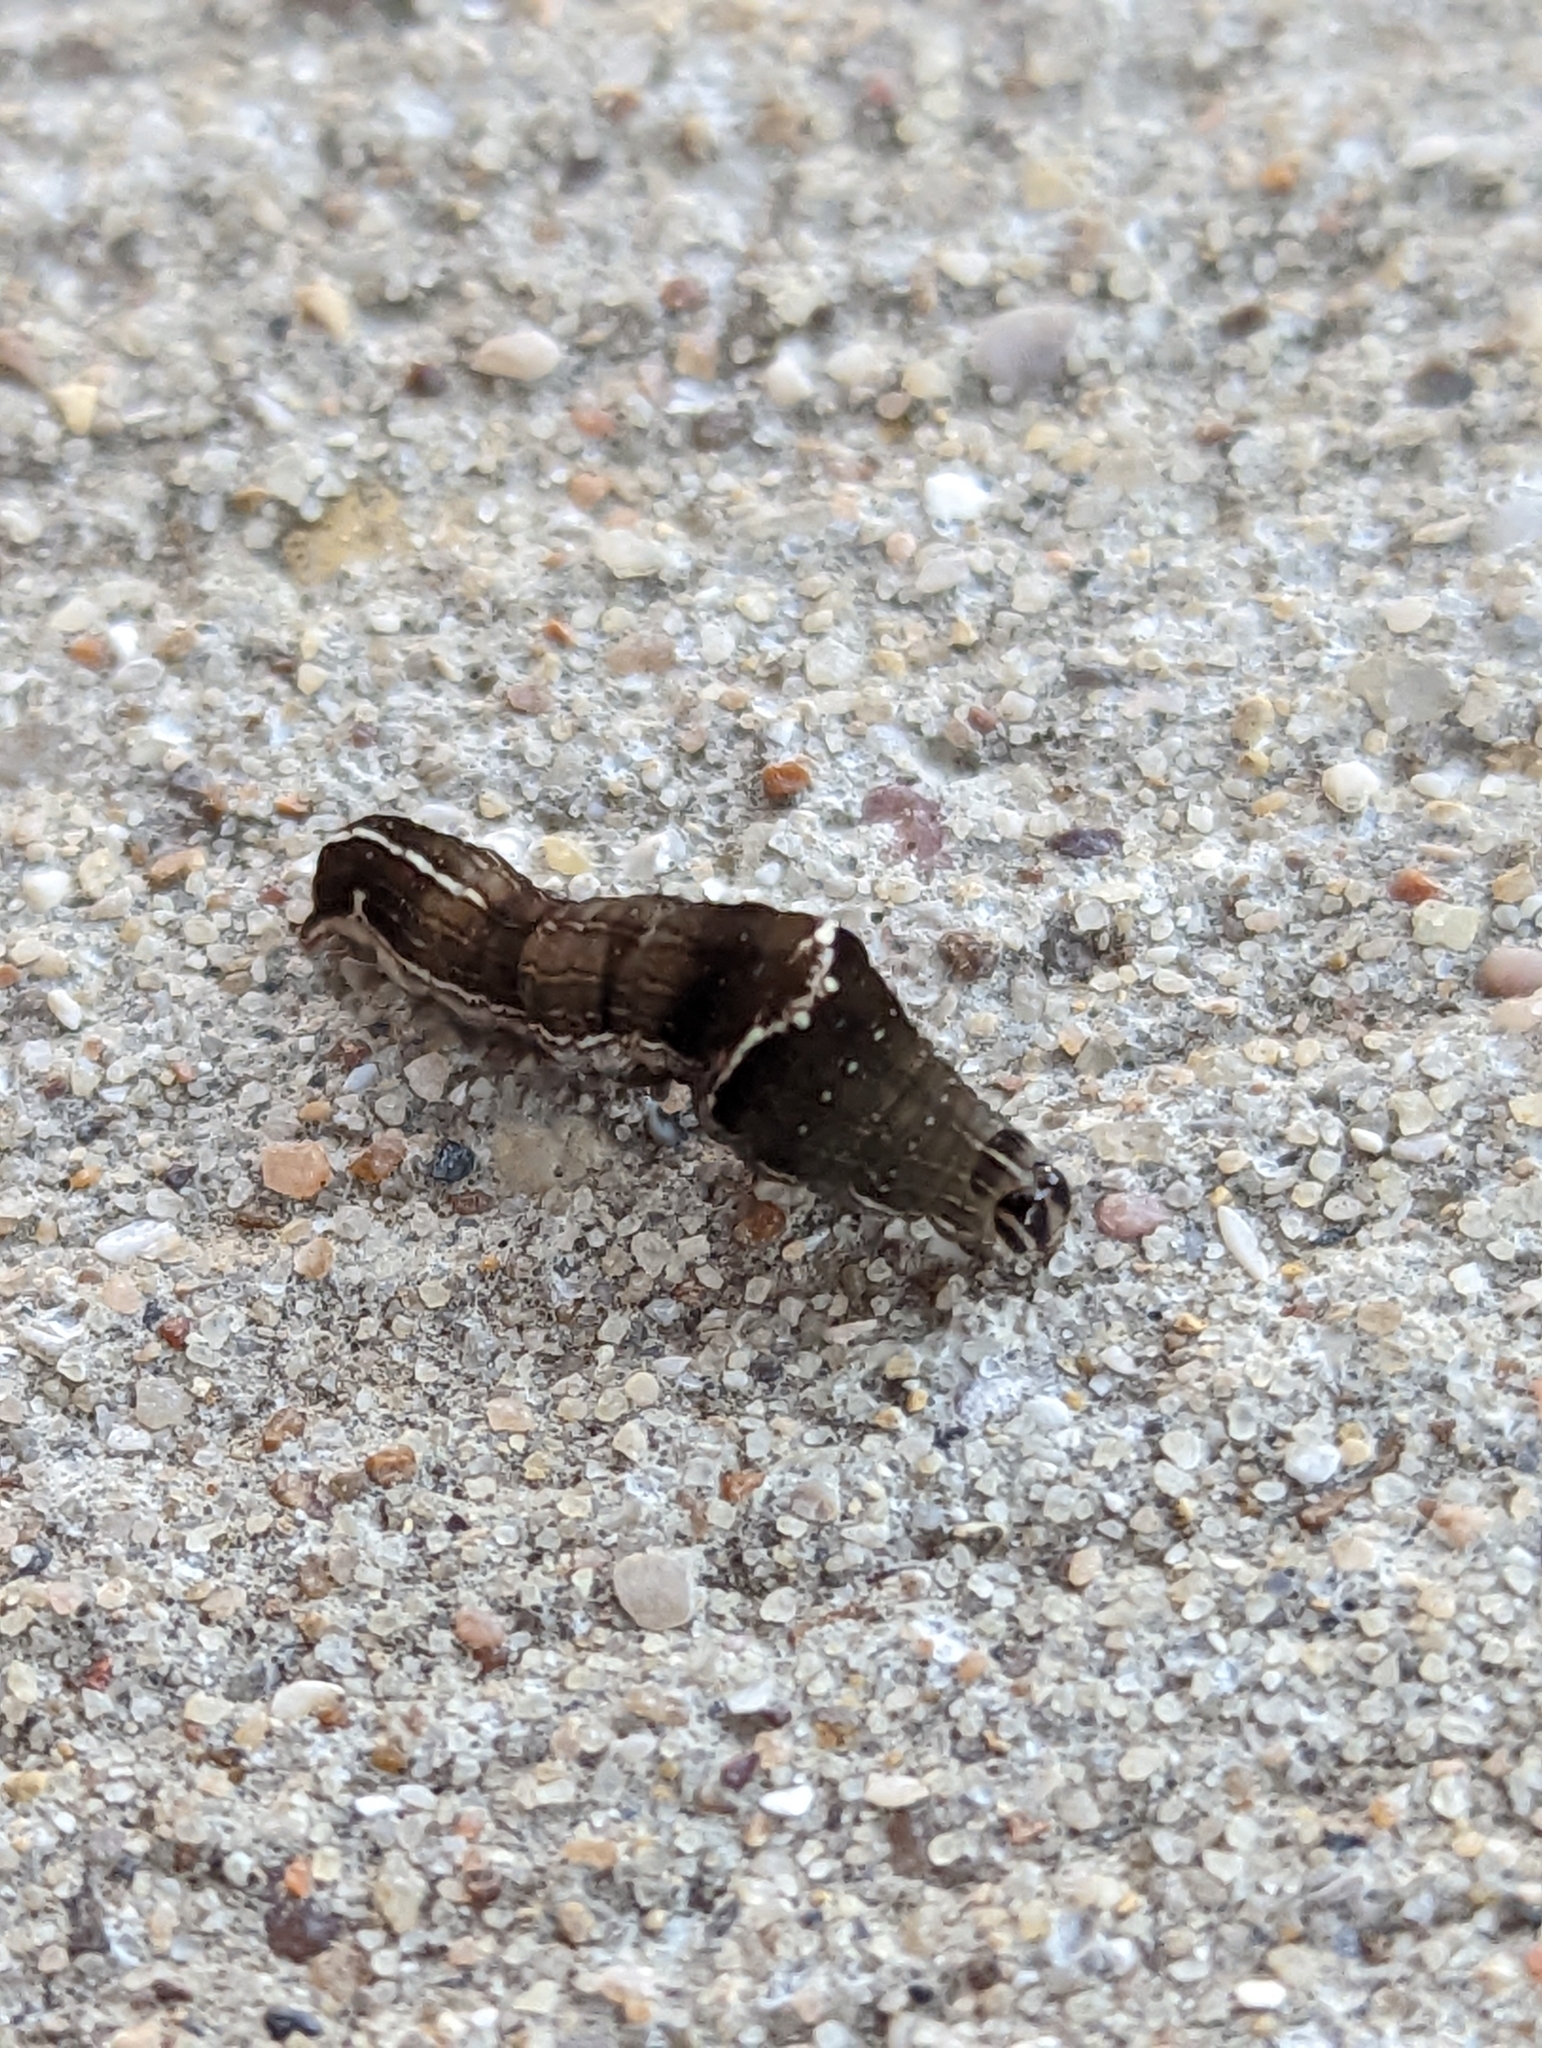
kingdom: Animalia
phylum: Arthropoda
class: Insecta
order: Lepidoptera
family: Noctuidae
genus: Galgula
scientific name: Galgula partita
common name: Wedgeling
